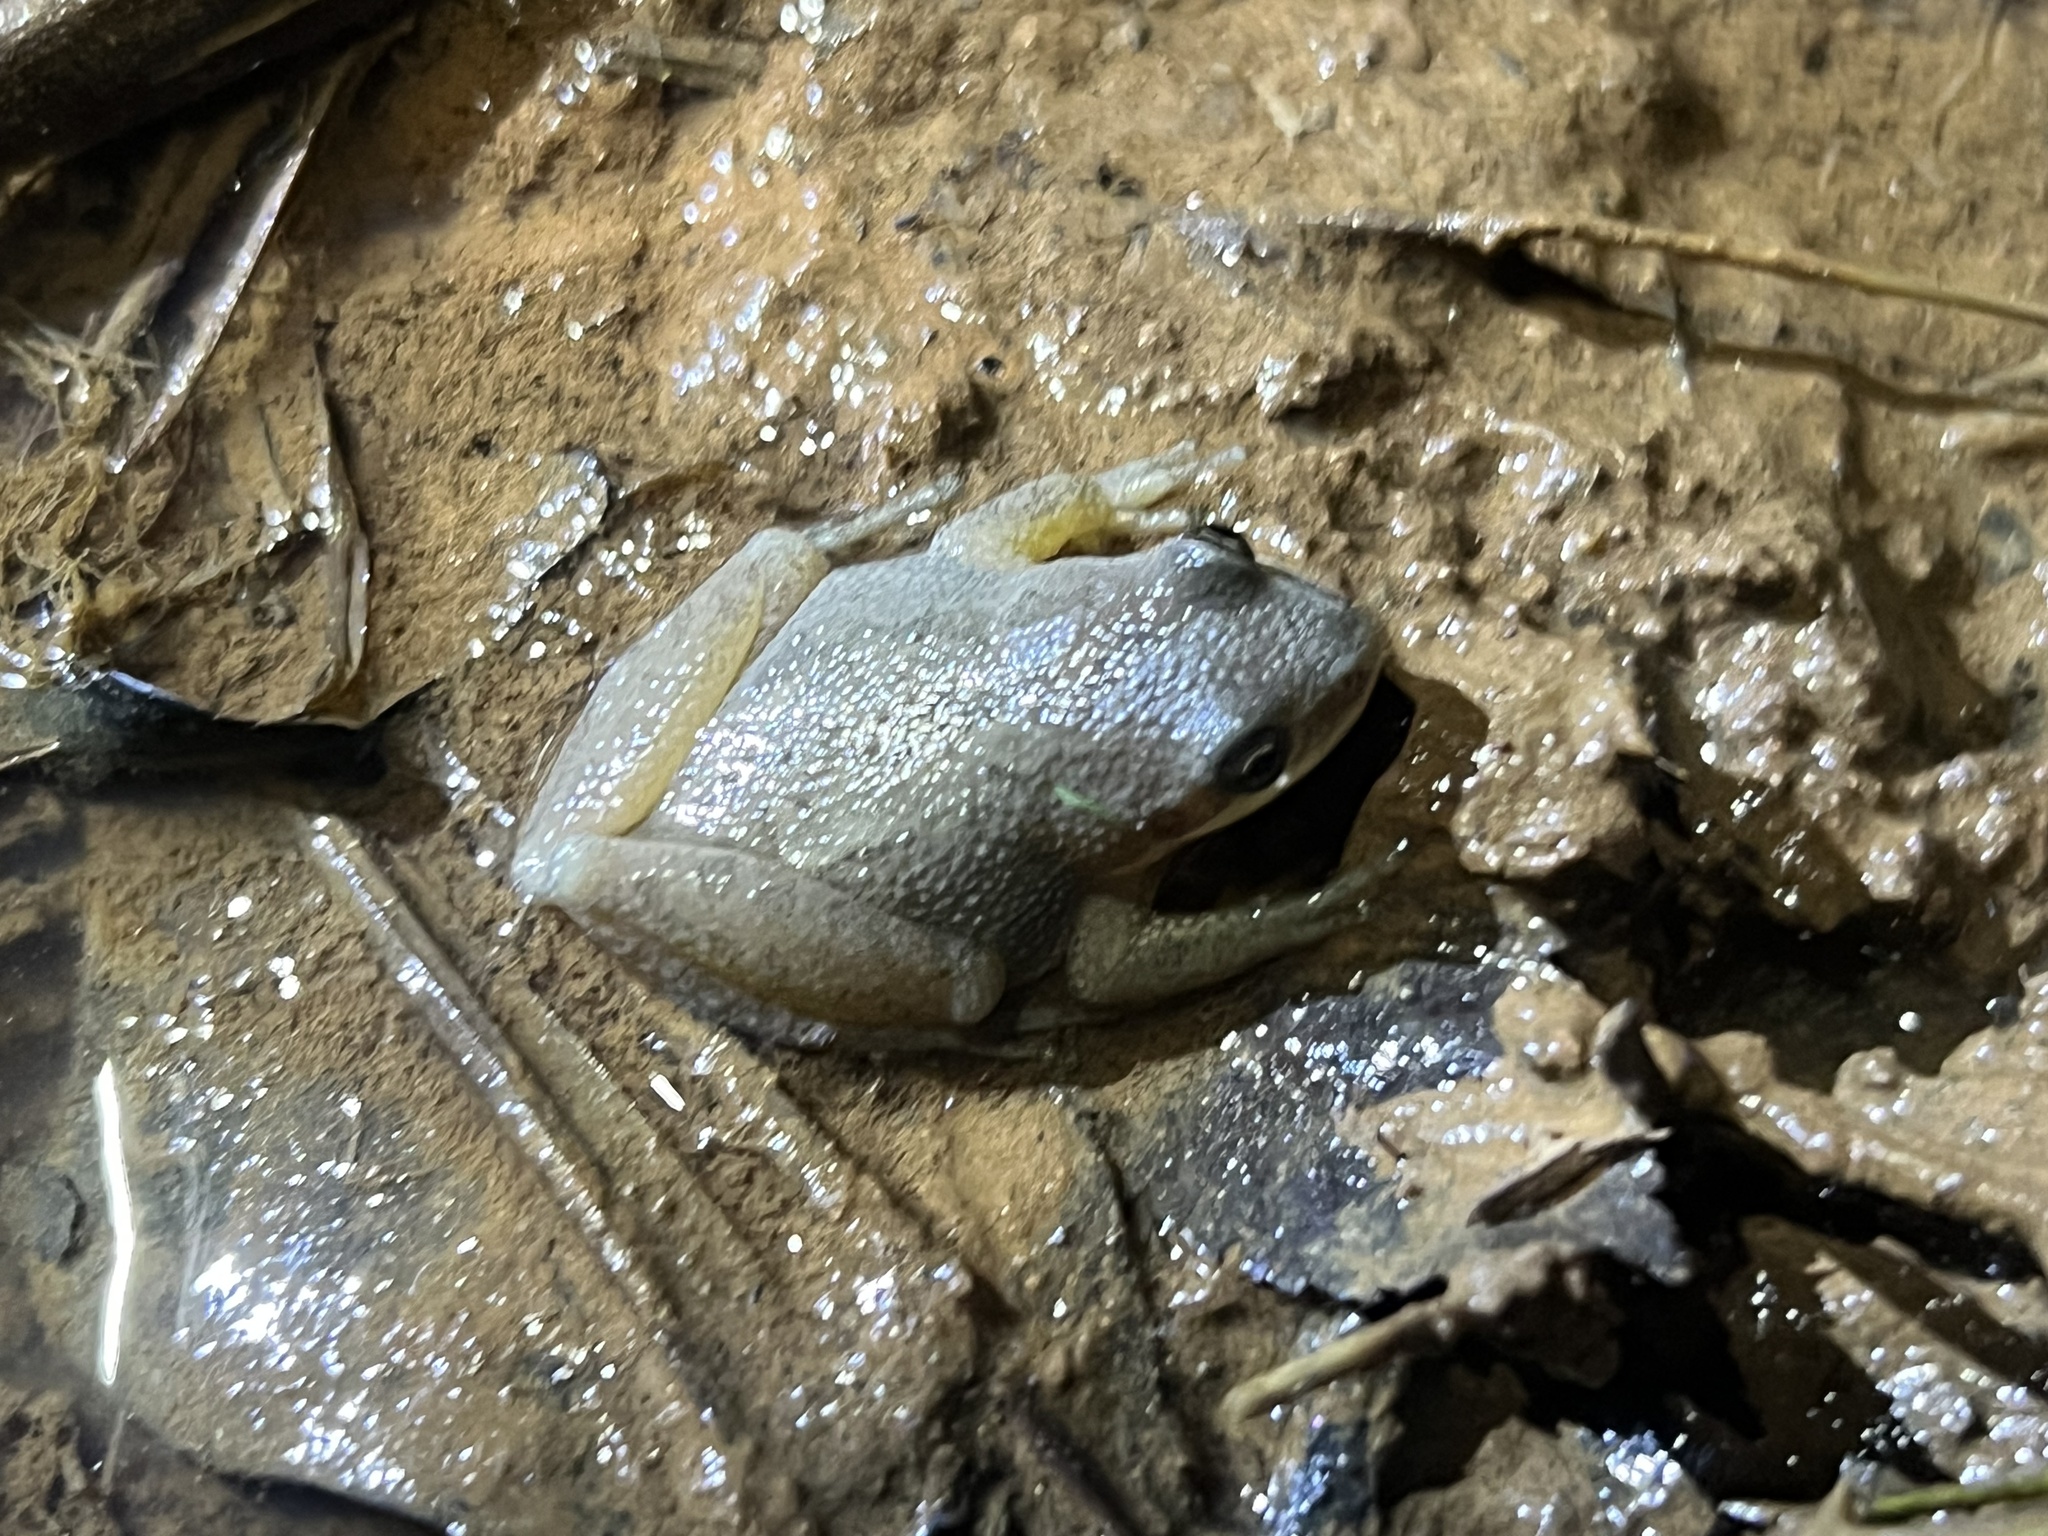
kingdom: Animalia
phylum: Chordata
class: Amphibia
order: Anura
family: Hylidae
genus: Pseudacris
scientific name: Pseudacris feriarum
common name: Upland chorus frog
